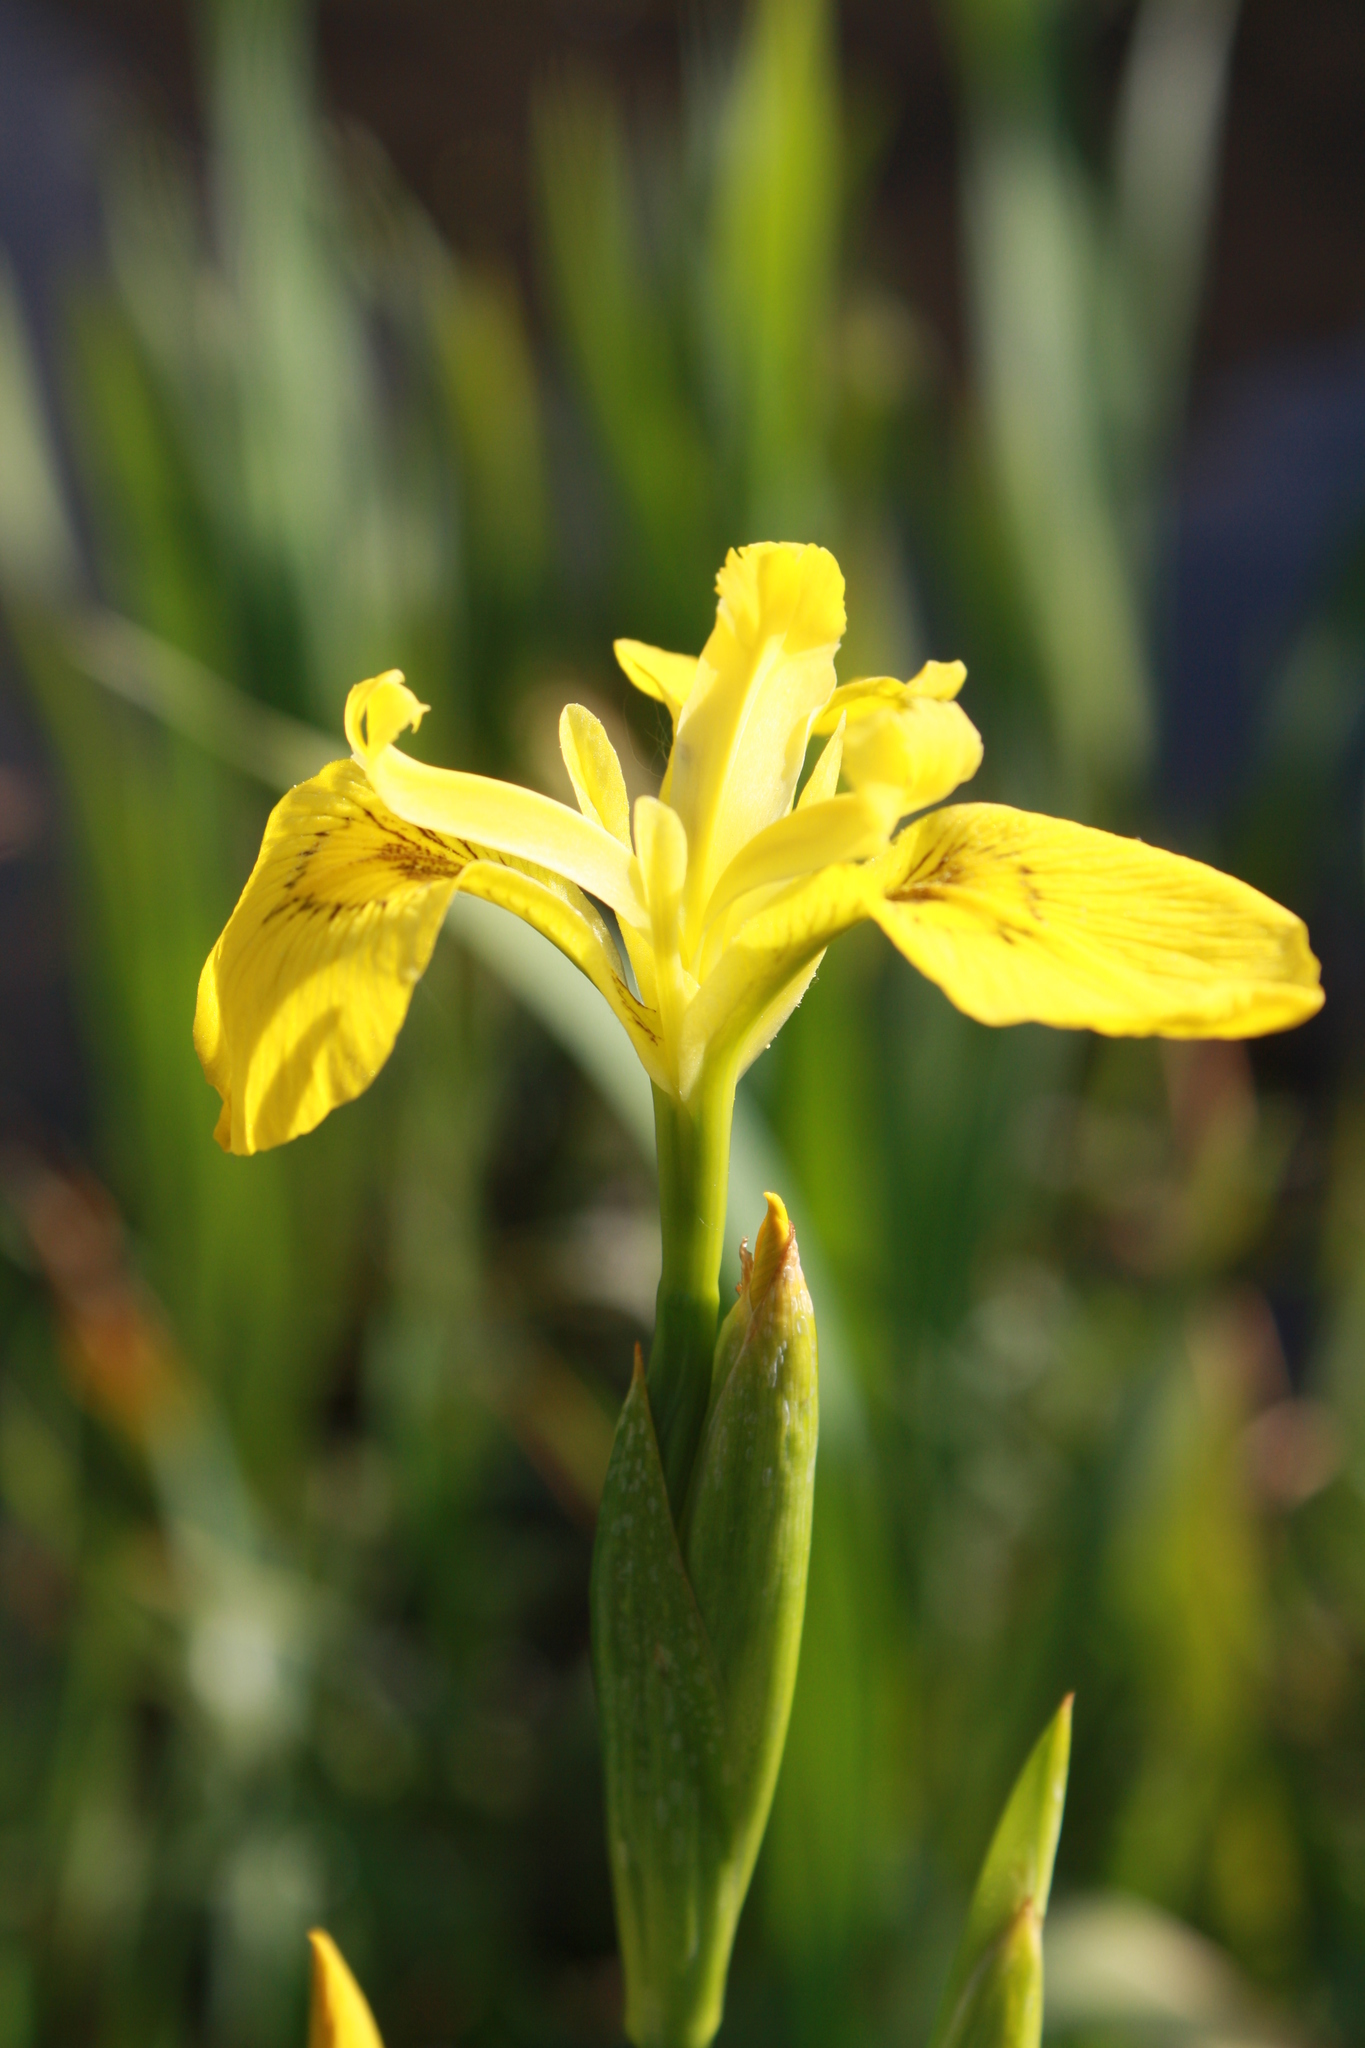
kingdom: Plantae
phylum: Tracheophyta
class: Liliopsida
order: Asparagales
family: Iridaceae
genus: Iris
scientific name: Iris pseudacorus
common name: Yellow flag
